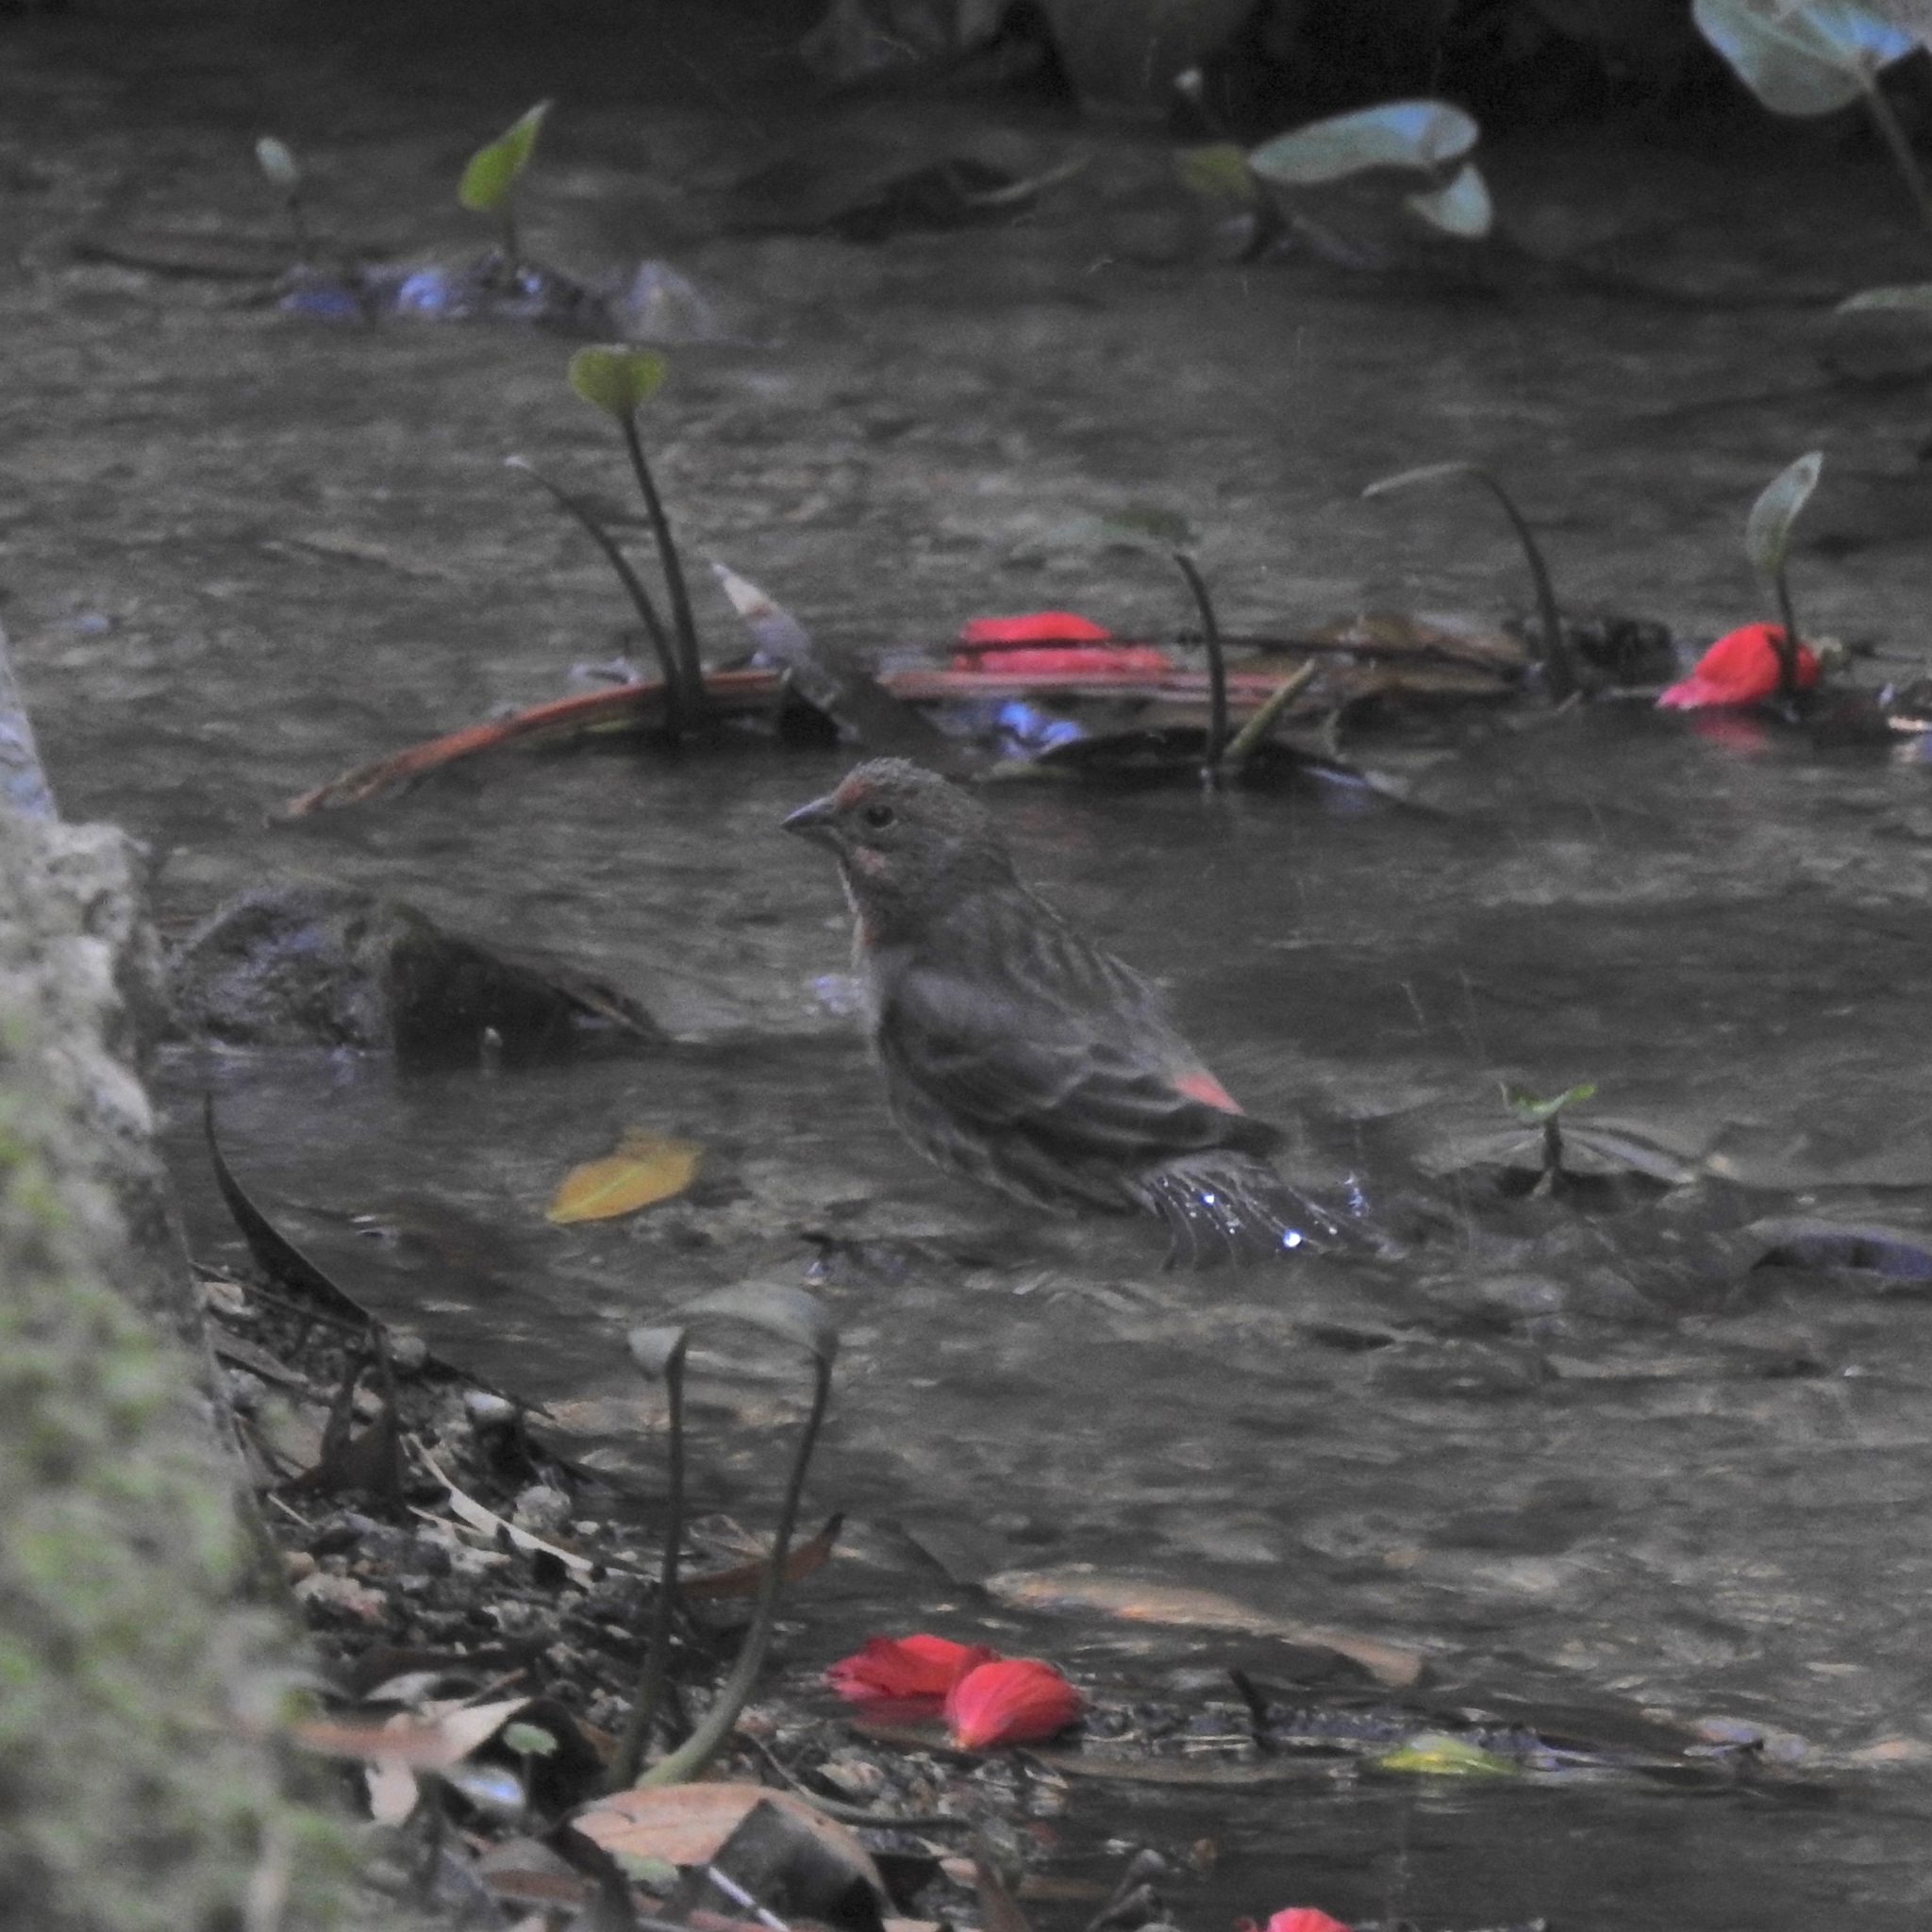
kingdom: Animalia
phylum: Chordata
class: Aves
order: Passeriformes
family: Fringillidae
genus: Haemorhous
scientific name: Haemorhous mexicanus
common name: House finch
